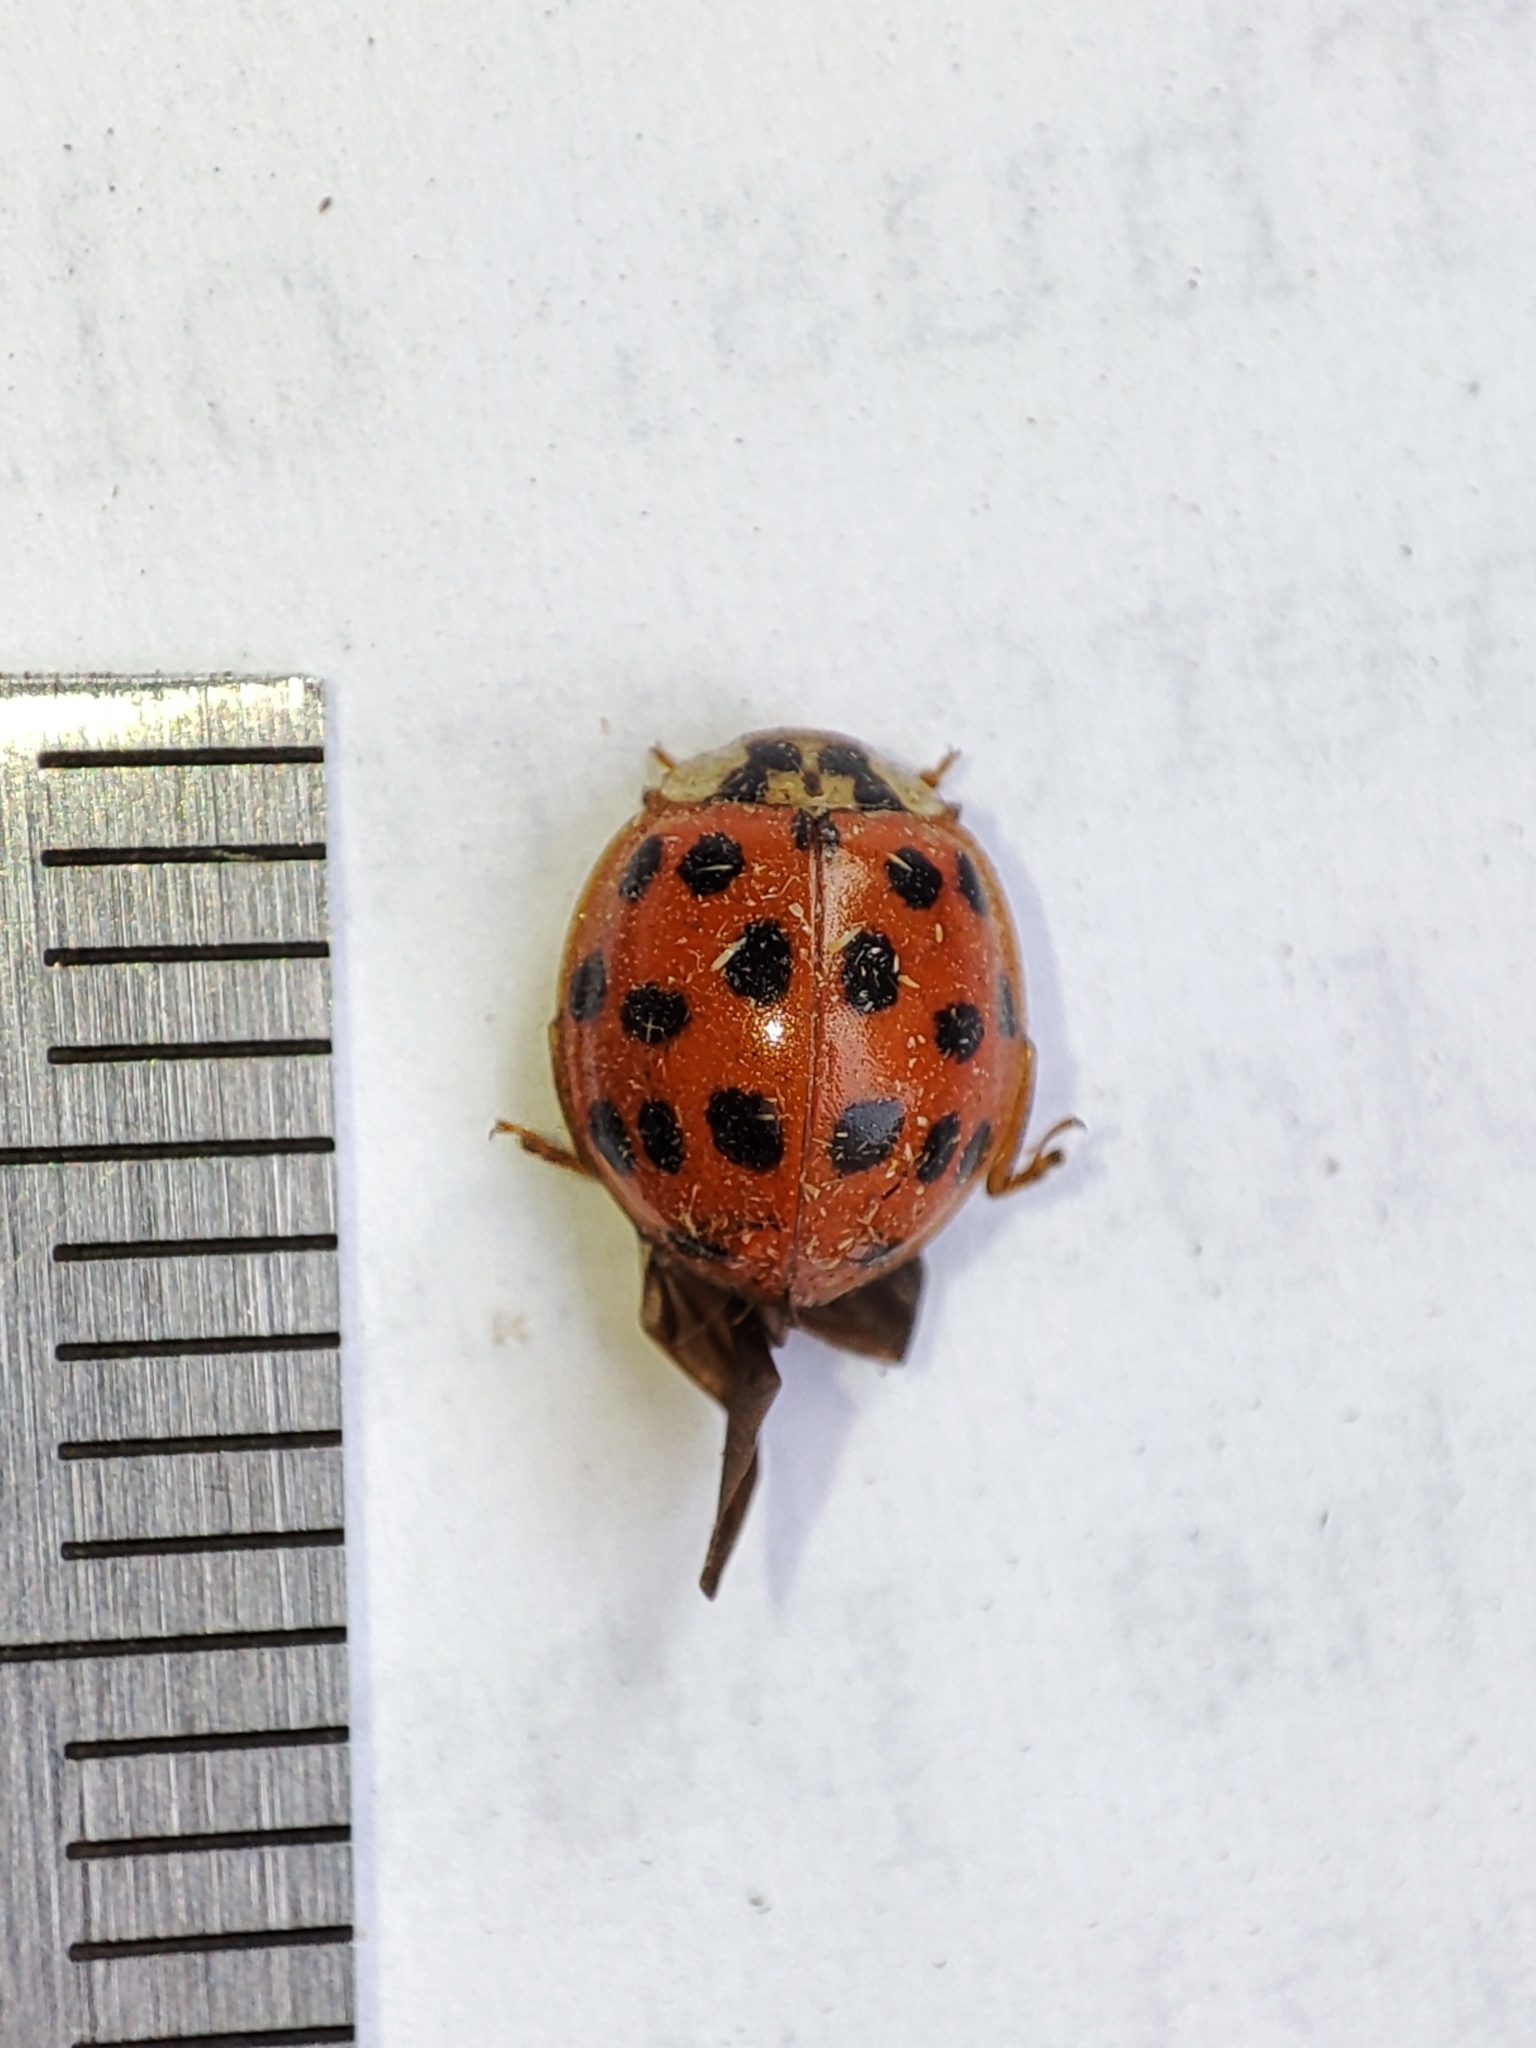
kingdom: Animalia
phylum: Arthropoda
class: Insecta
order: Coleoptera
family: Coccinellidae
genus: Harmonia
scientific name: Harmonia axyridis
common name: Harlequin ladybird
